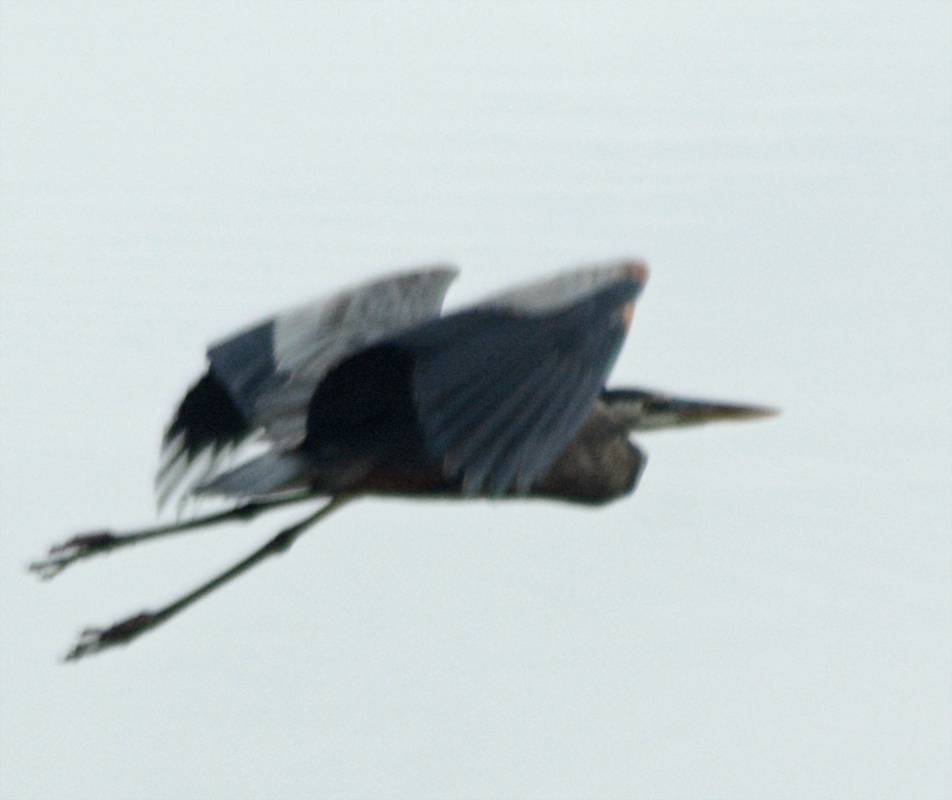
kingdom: Animalia
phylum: Chordata
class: Aves
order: Pelecaniformes
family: Ardeidae
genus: Ardea
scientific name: Ardea herodias
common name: Great blue heron
